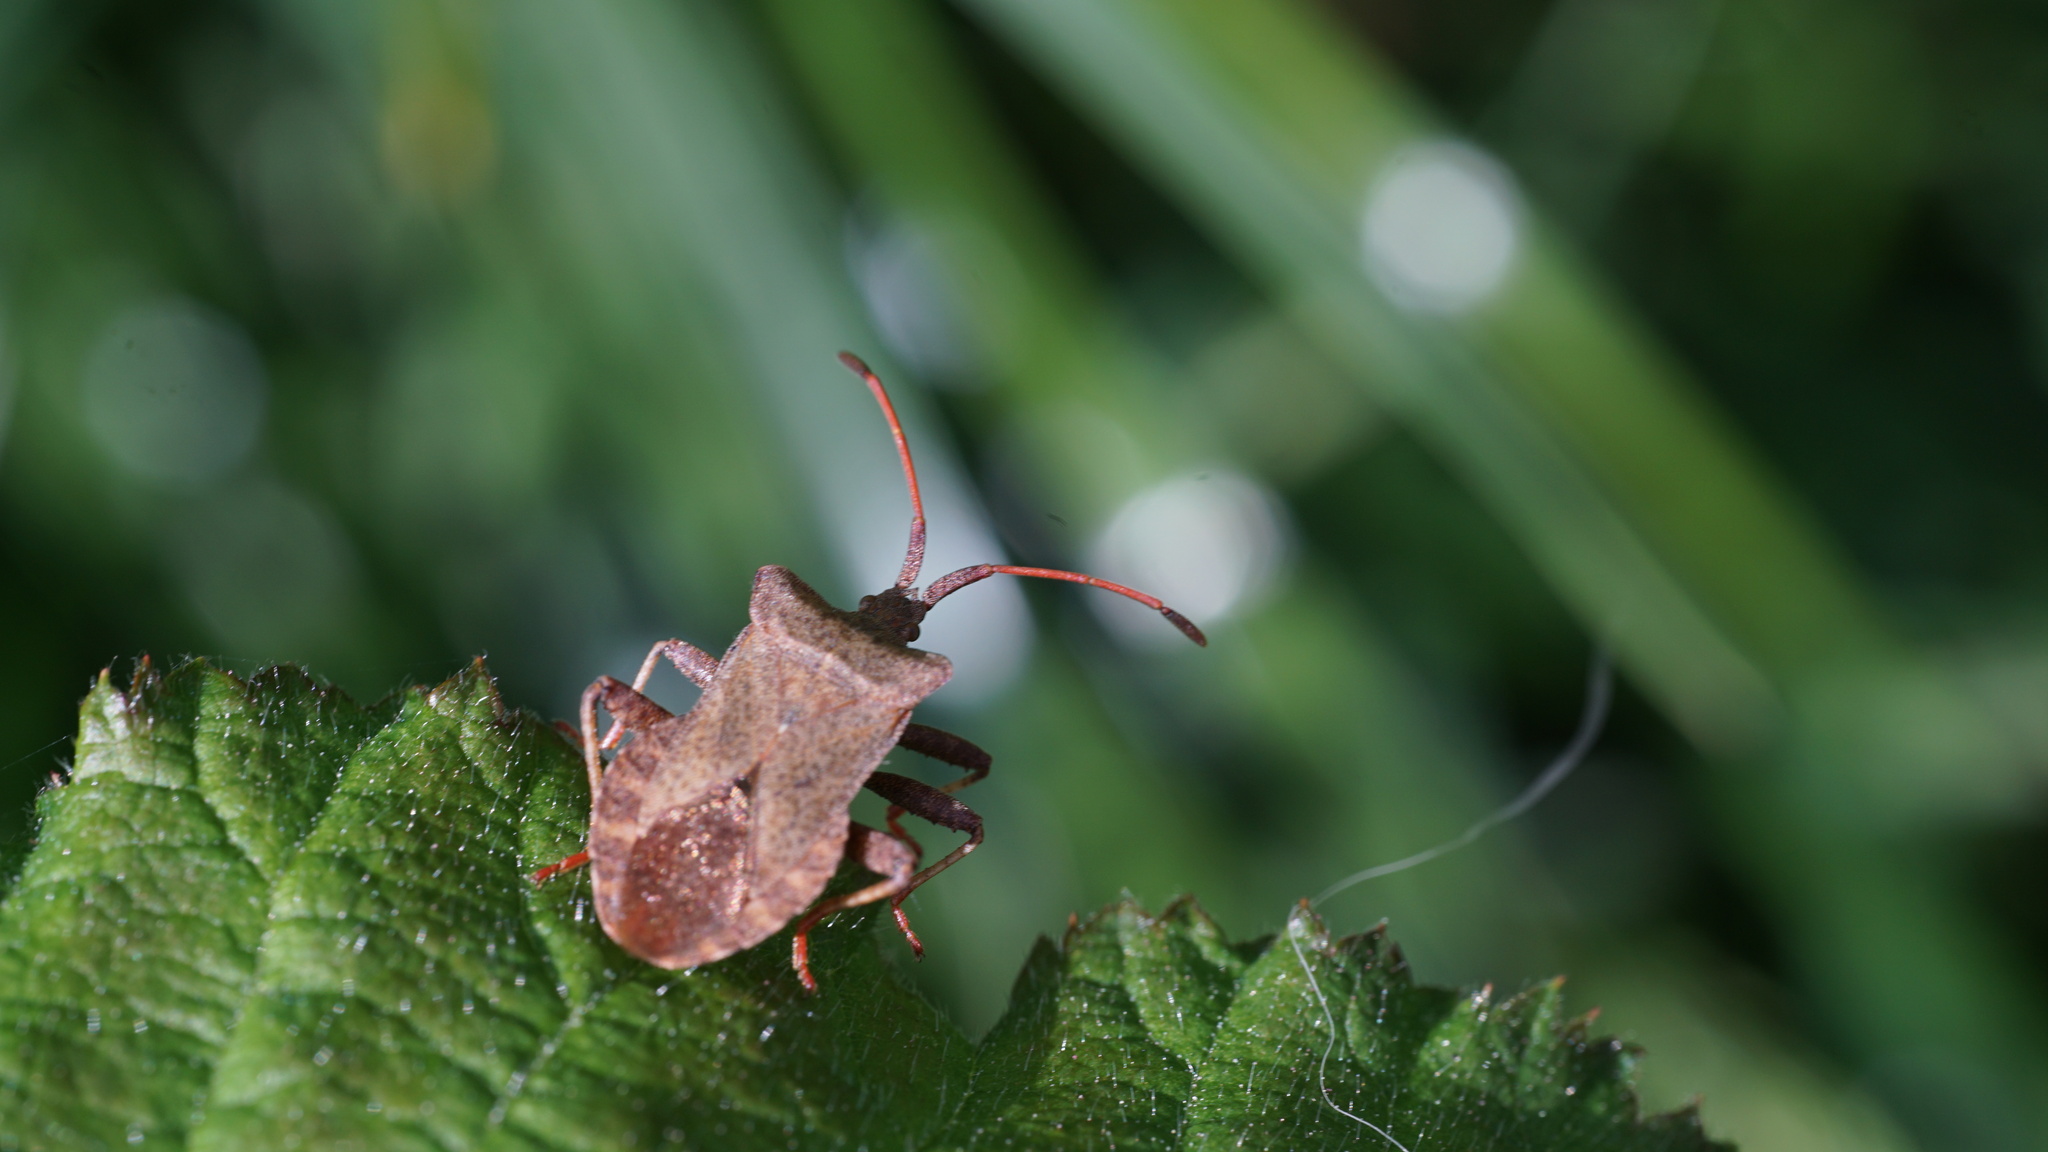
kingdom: Animalia
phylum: Arthropoda
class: Insecta
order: Hemiptera
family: Coreidae
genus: Coreus
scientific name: Coreus marginatus
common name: Dock bug
